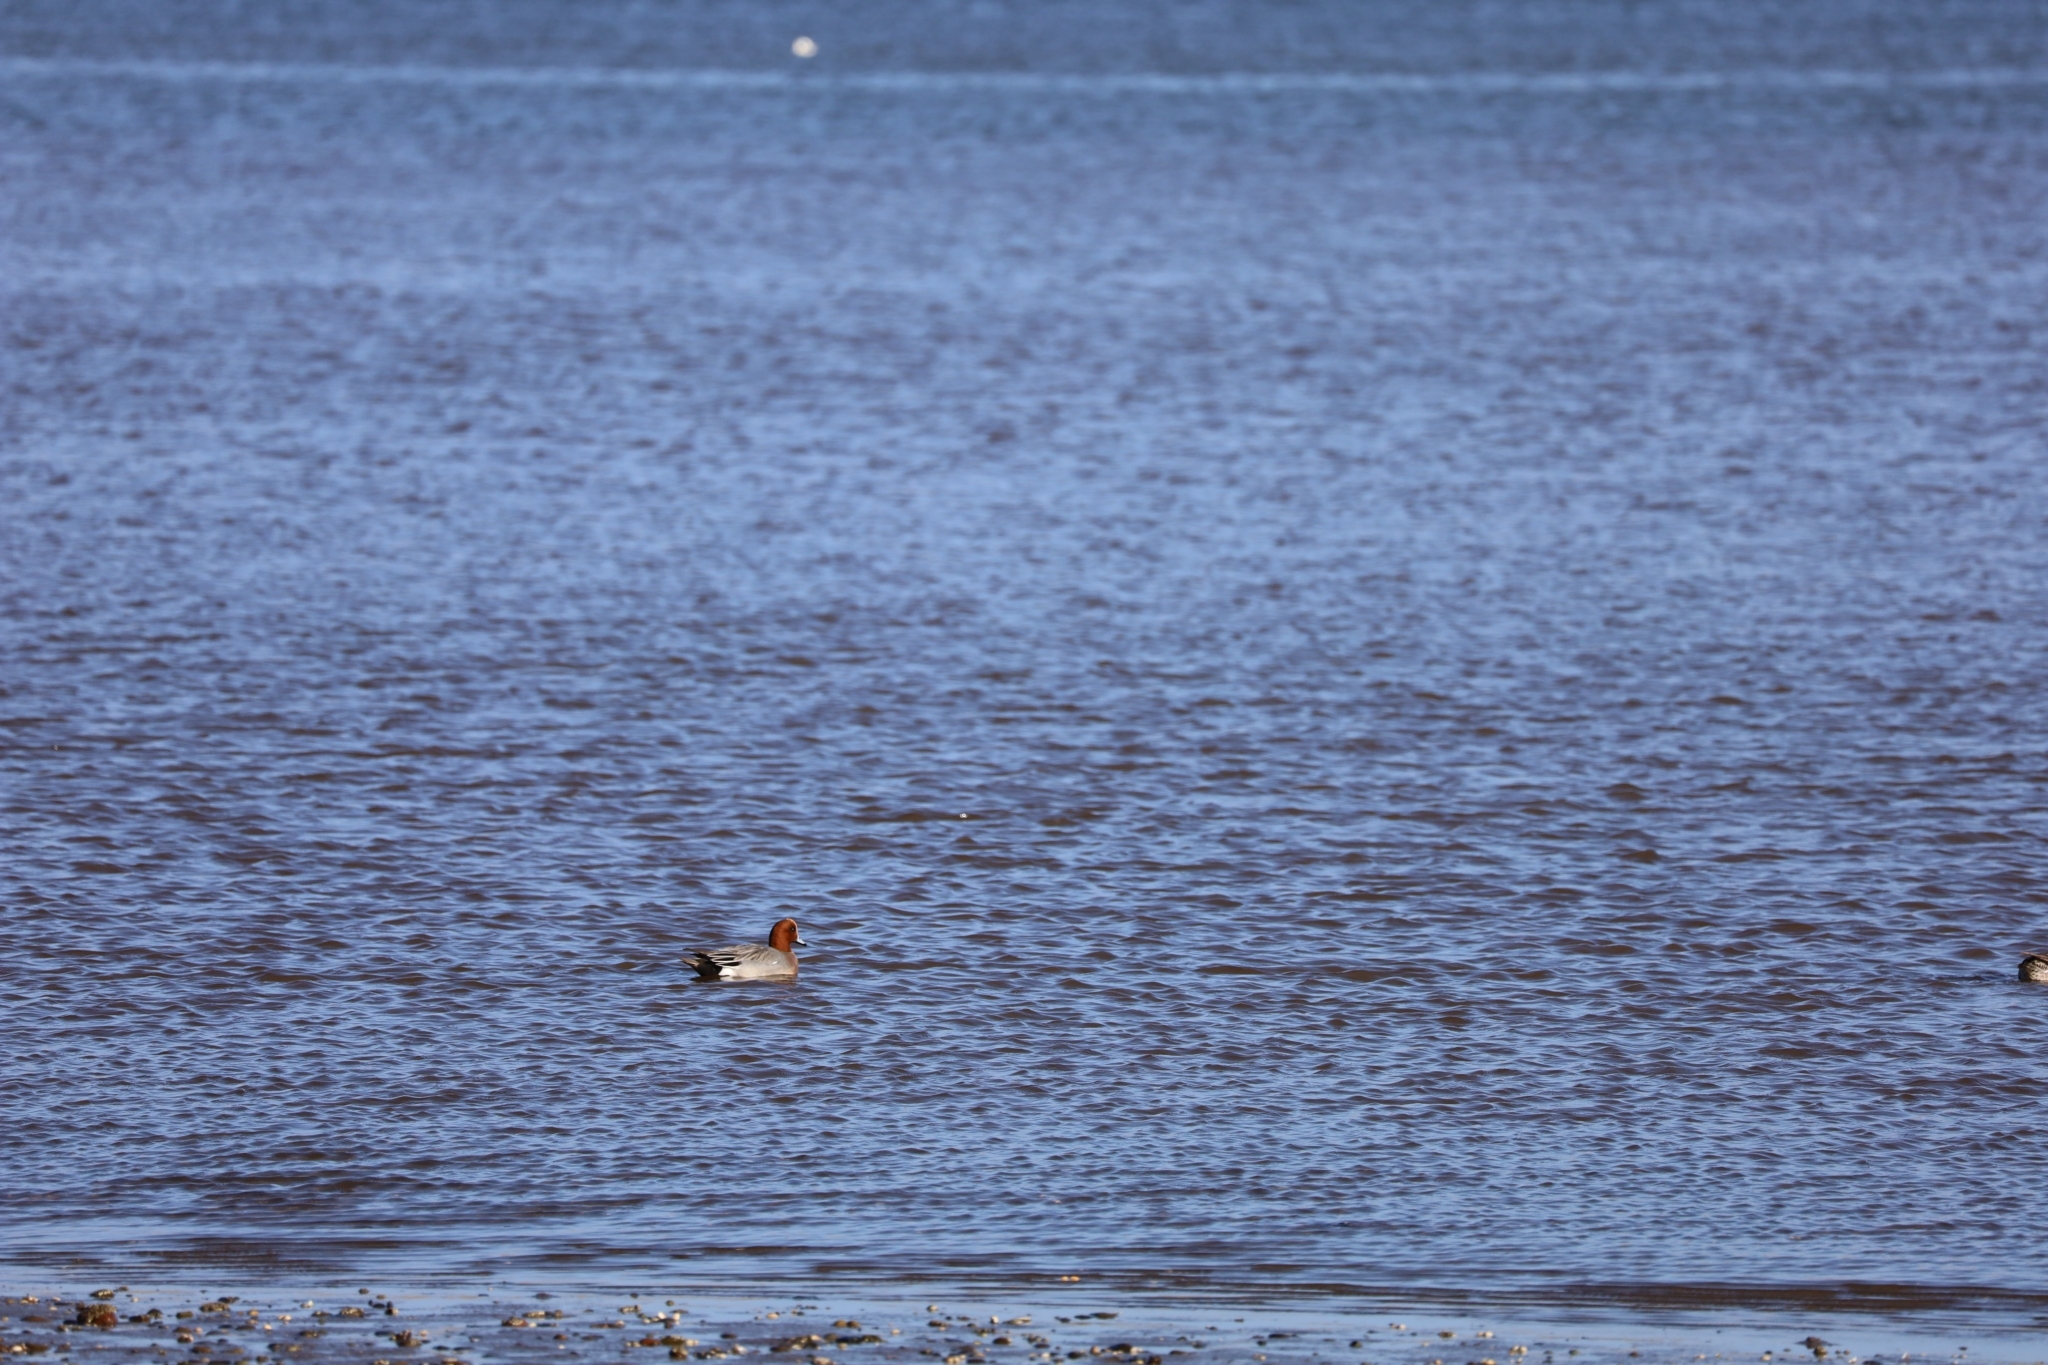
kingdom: Animalia
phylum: Chordata
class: Aves
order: Anseriformes
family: Anatidae
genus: Mareca
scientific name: Mareca penelope
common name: Eurasian wigeon
